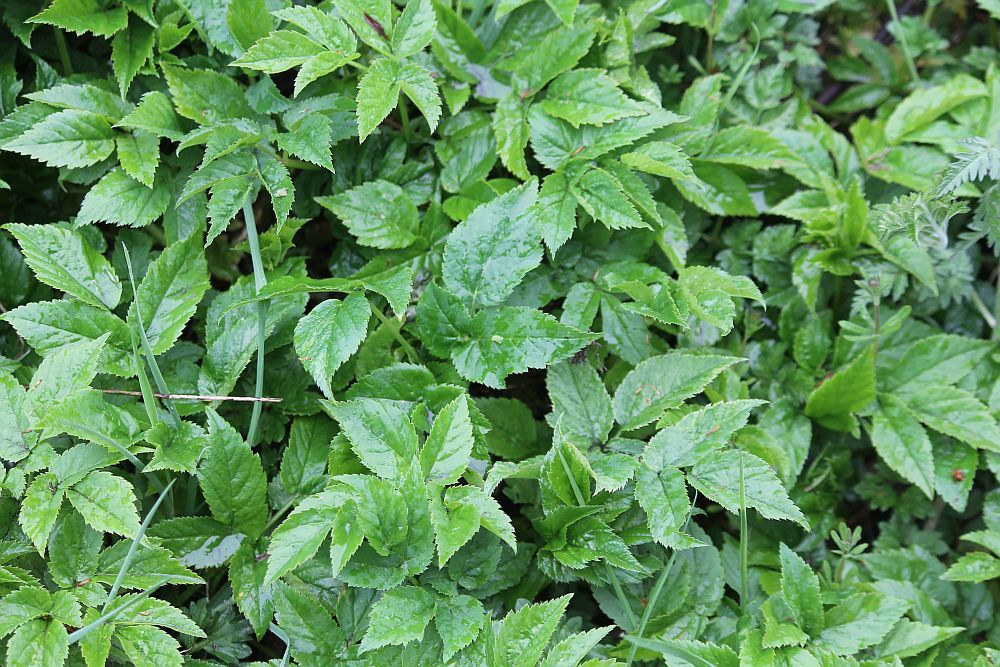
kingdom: Plantae
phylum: Tracheophyta
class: Magnoliopsida
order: Apiales
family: Apiaceae
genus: Aegopodium
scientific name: Aegopodium podagraria
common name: Ground-elder
